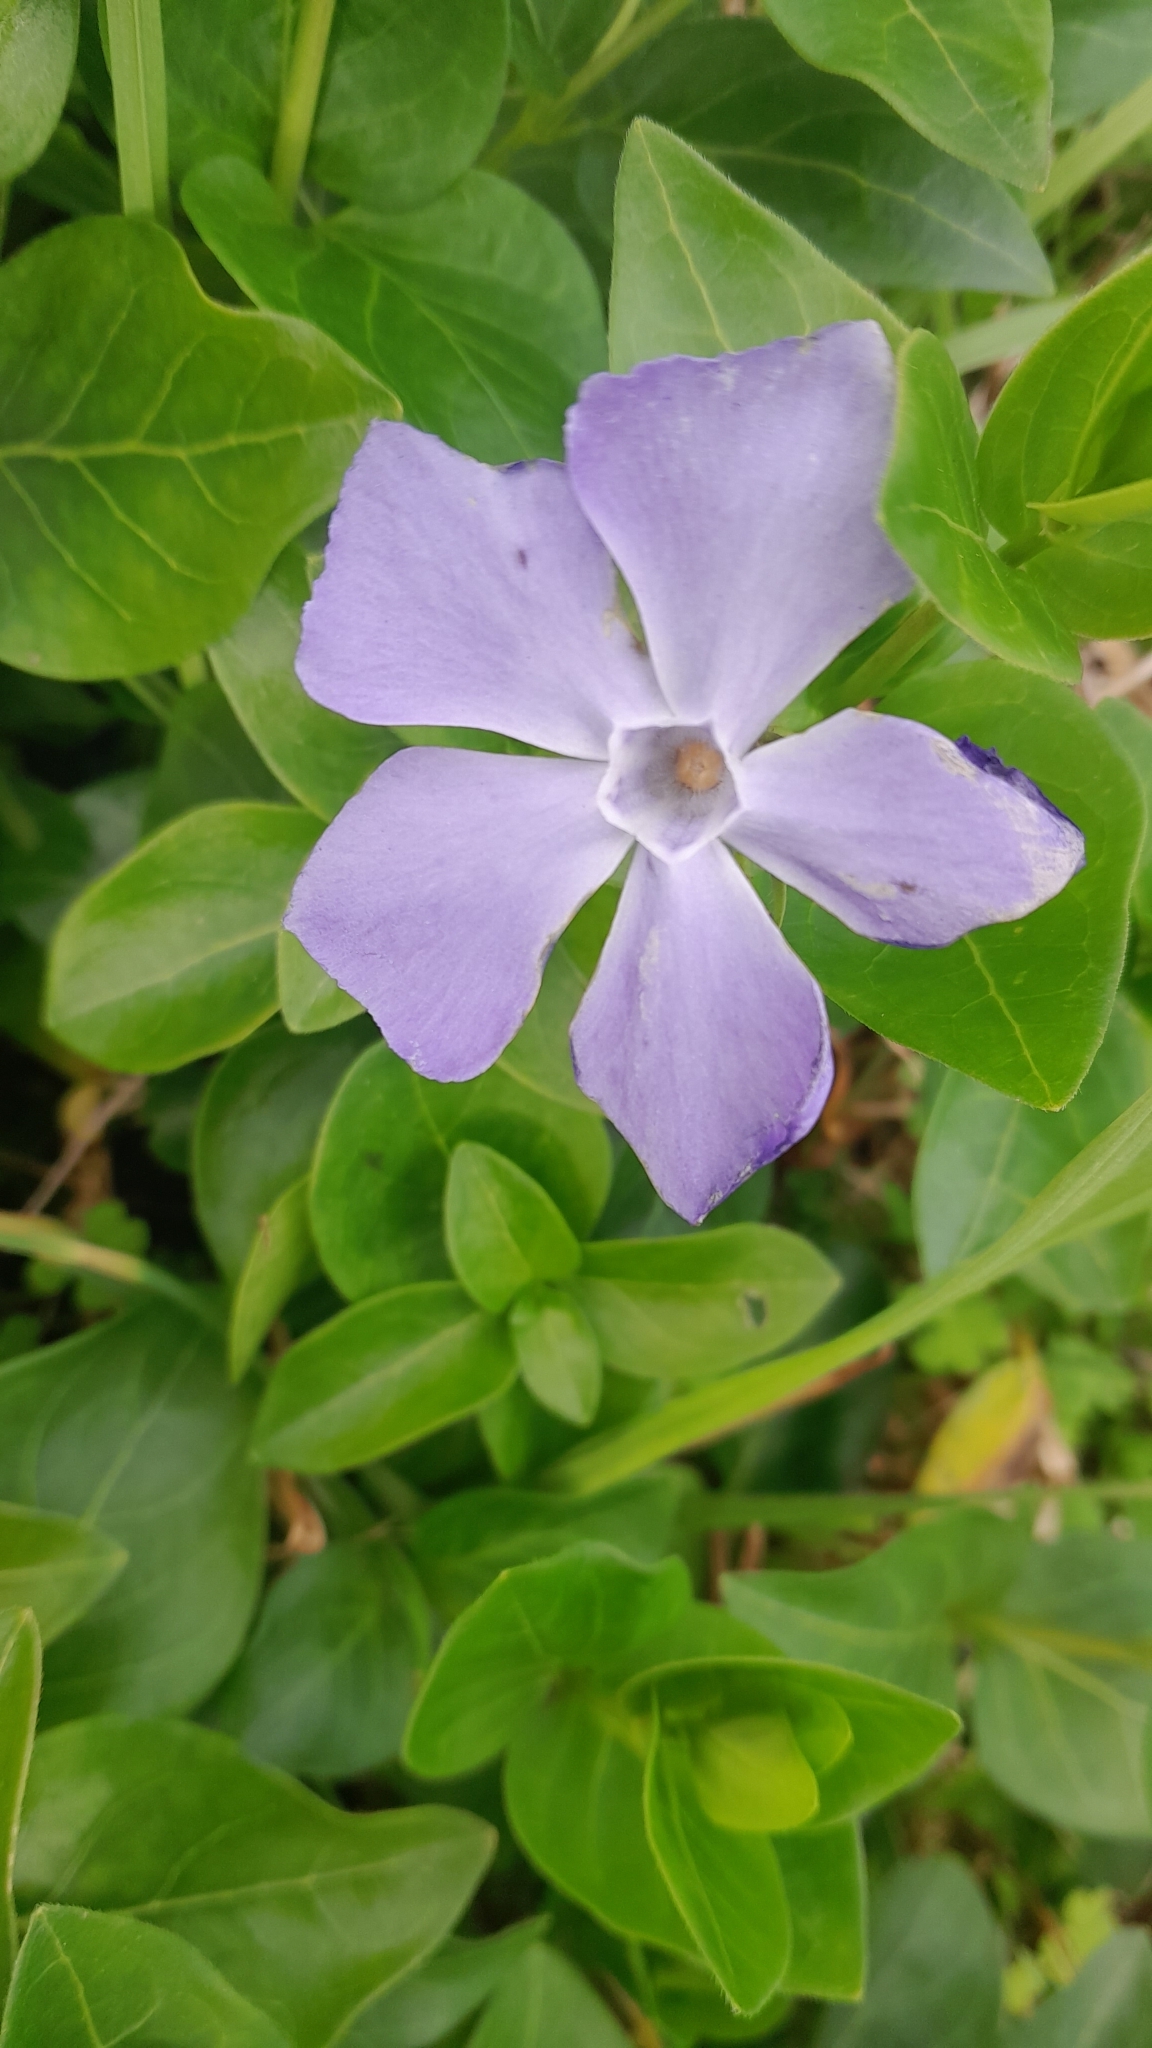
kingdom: Plantae
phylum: Tracheophyta
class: Magnoliopsida
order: Gentianales
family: Apocynaceae
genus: Vinca
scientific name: Vinca major
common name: Greater periwinkle
